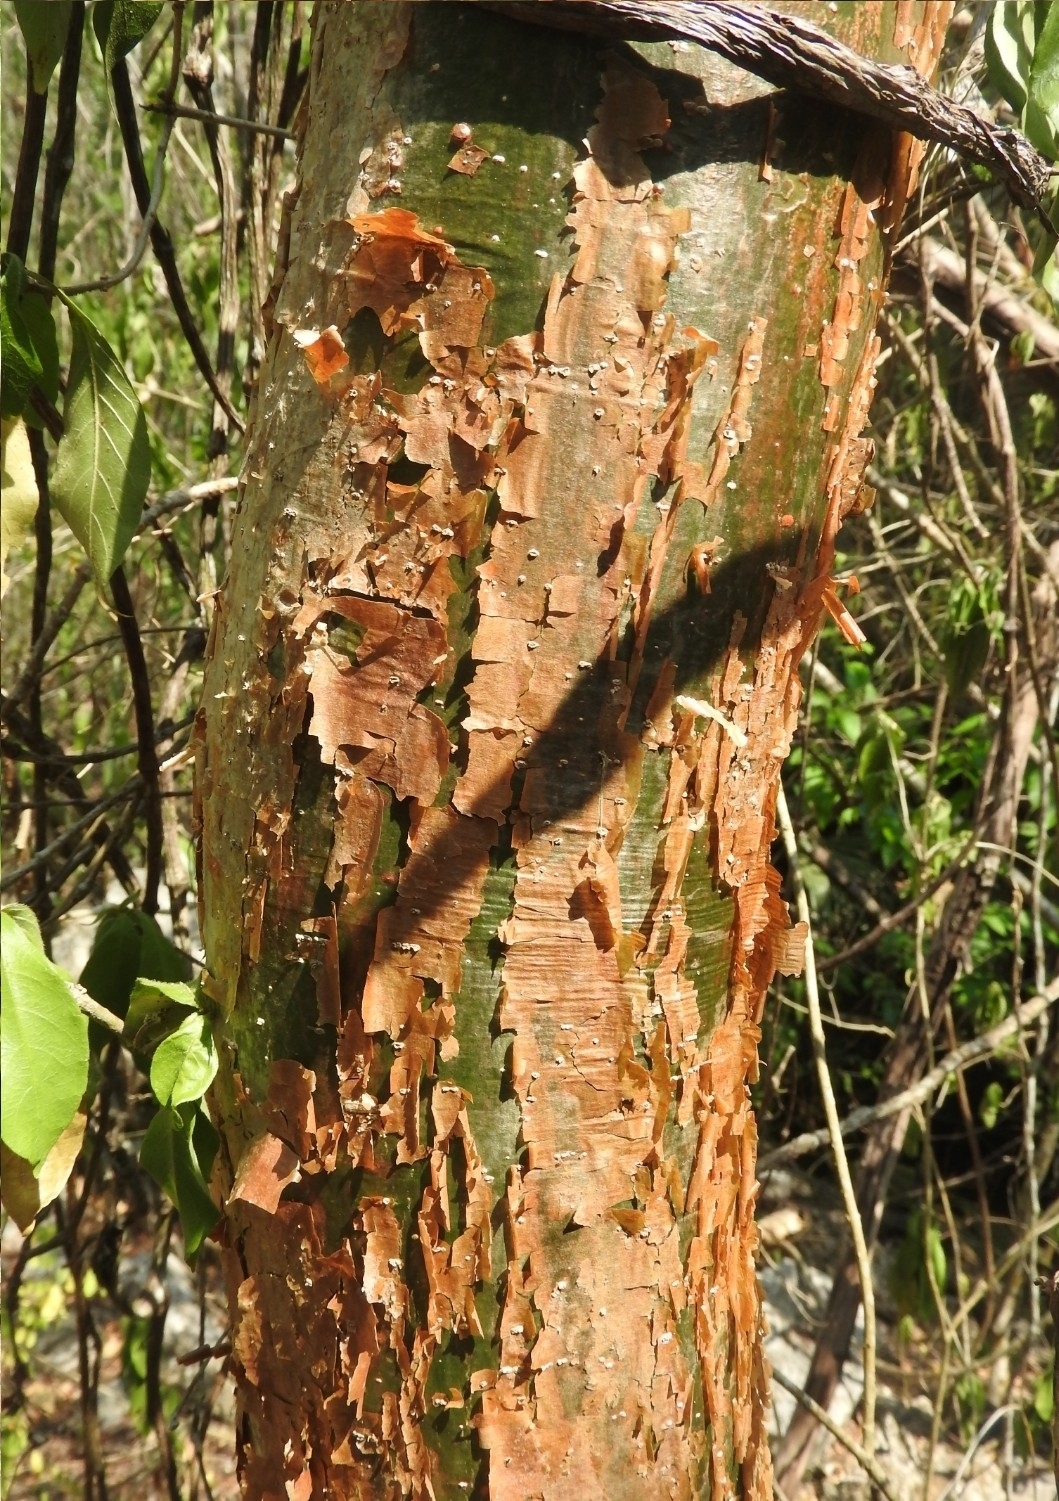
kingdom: Plantae
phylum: Tracheophyta
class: Magnoliopsida
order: Sapindales
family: Burseraceae
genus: Bursera
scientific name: Bursera simaruba
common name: Turpentine tree
